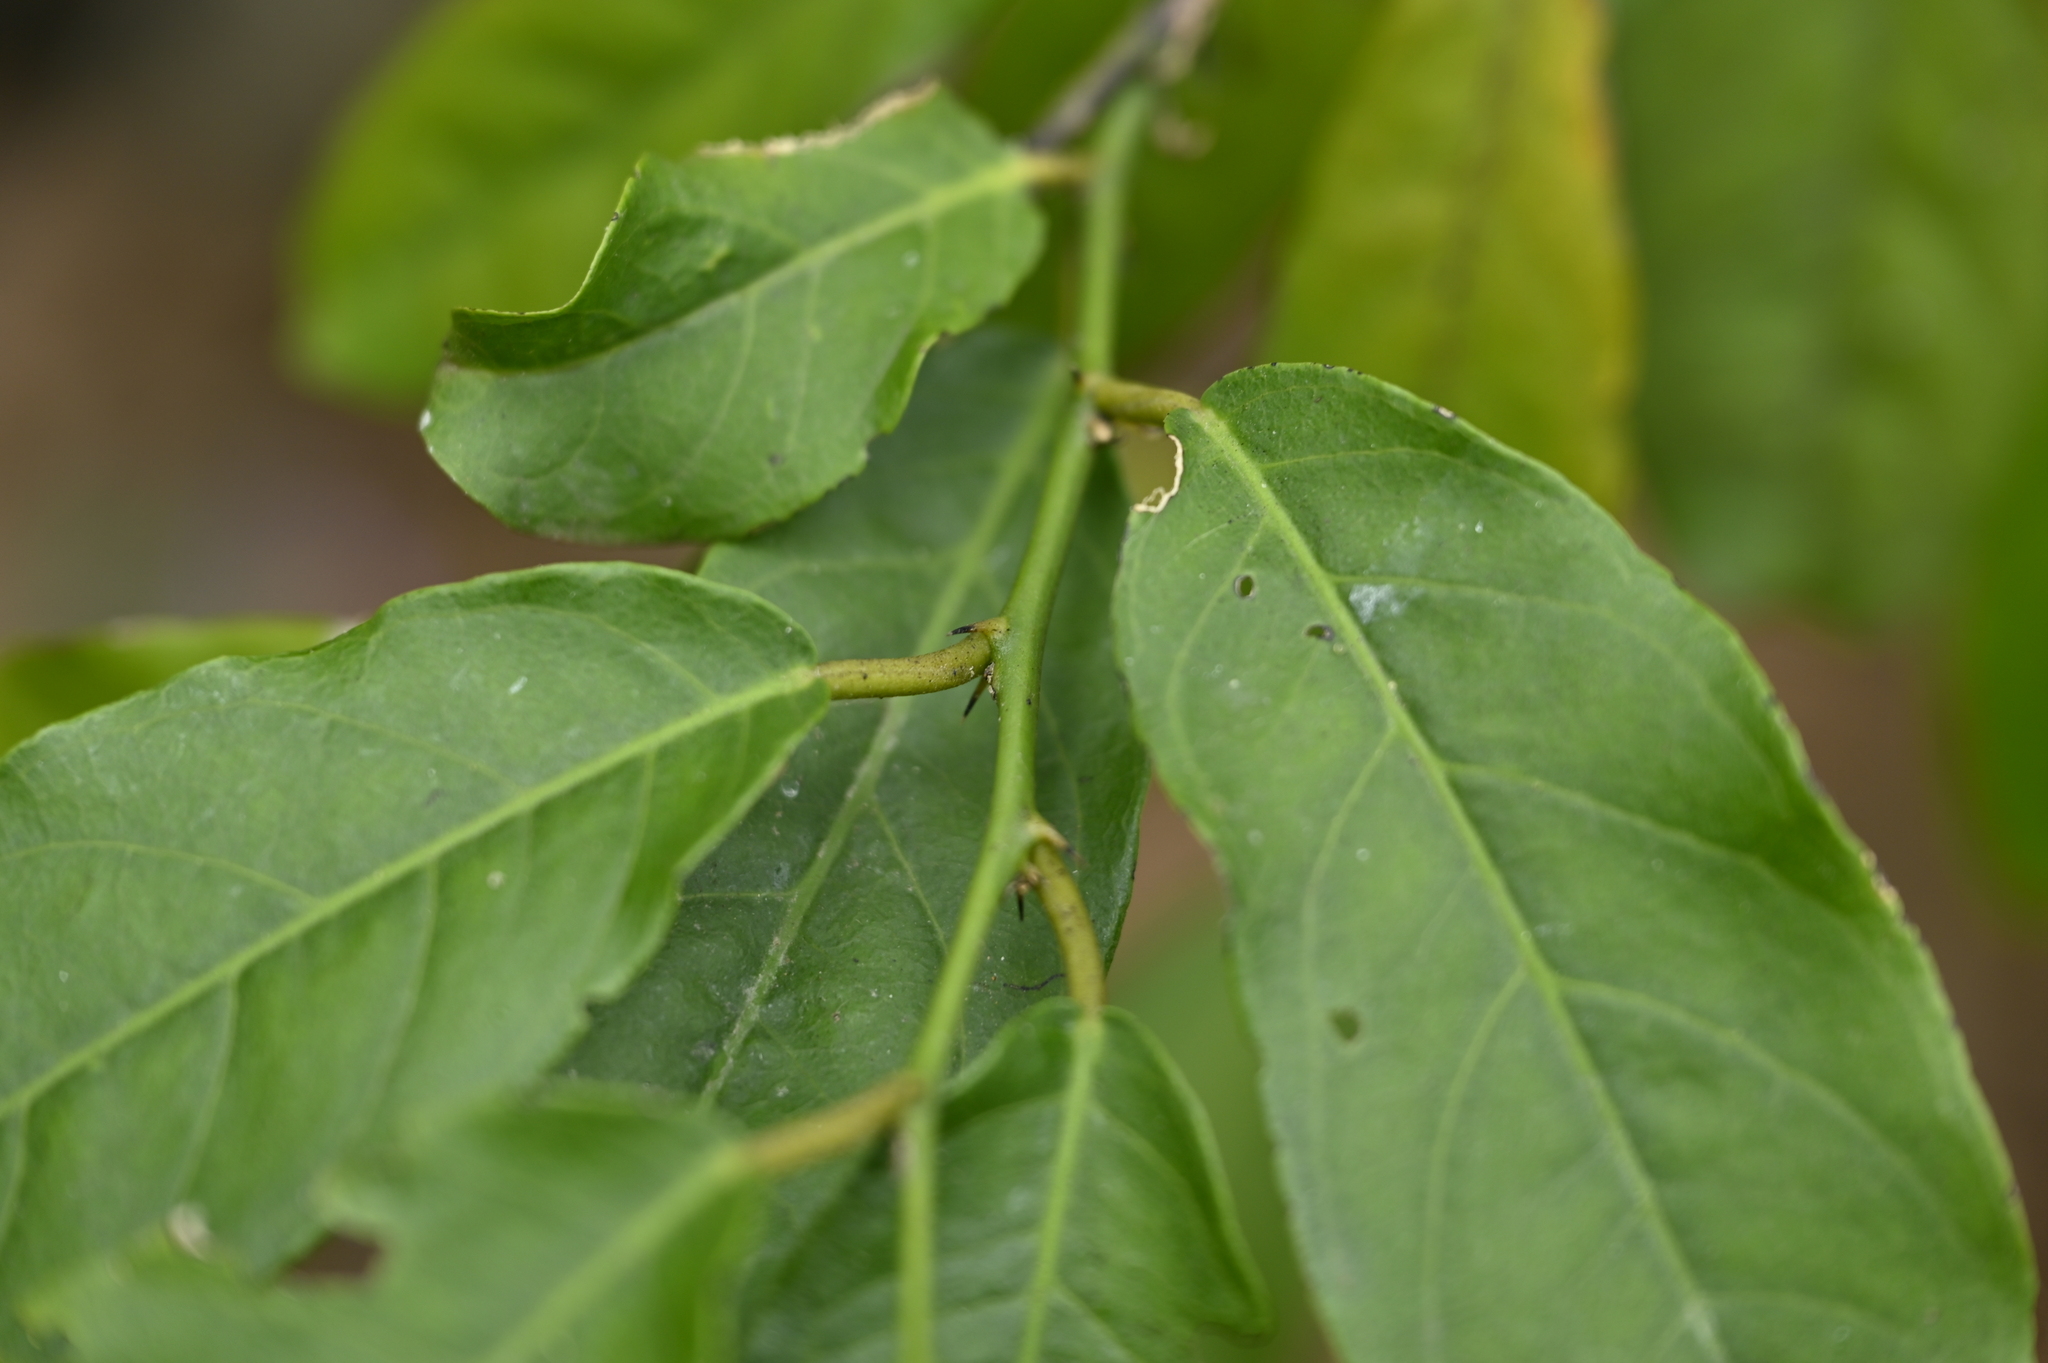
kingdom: Plantae
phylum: Tracheophyta
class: Magnoliopsida
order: Brassicales
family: Capparaceae
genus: Capparis
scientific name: Capparis micracantha
